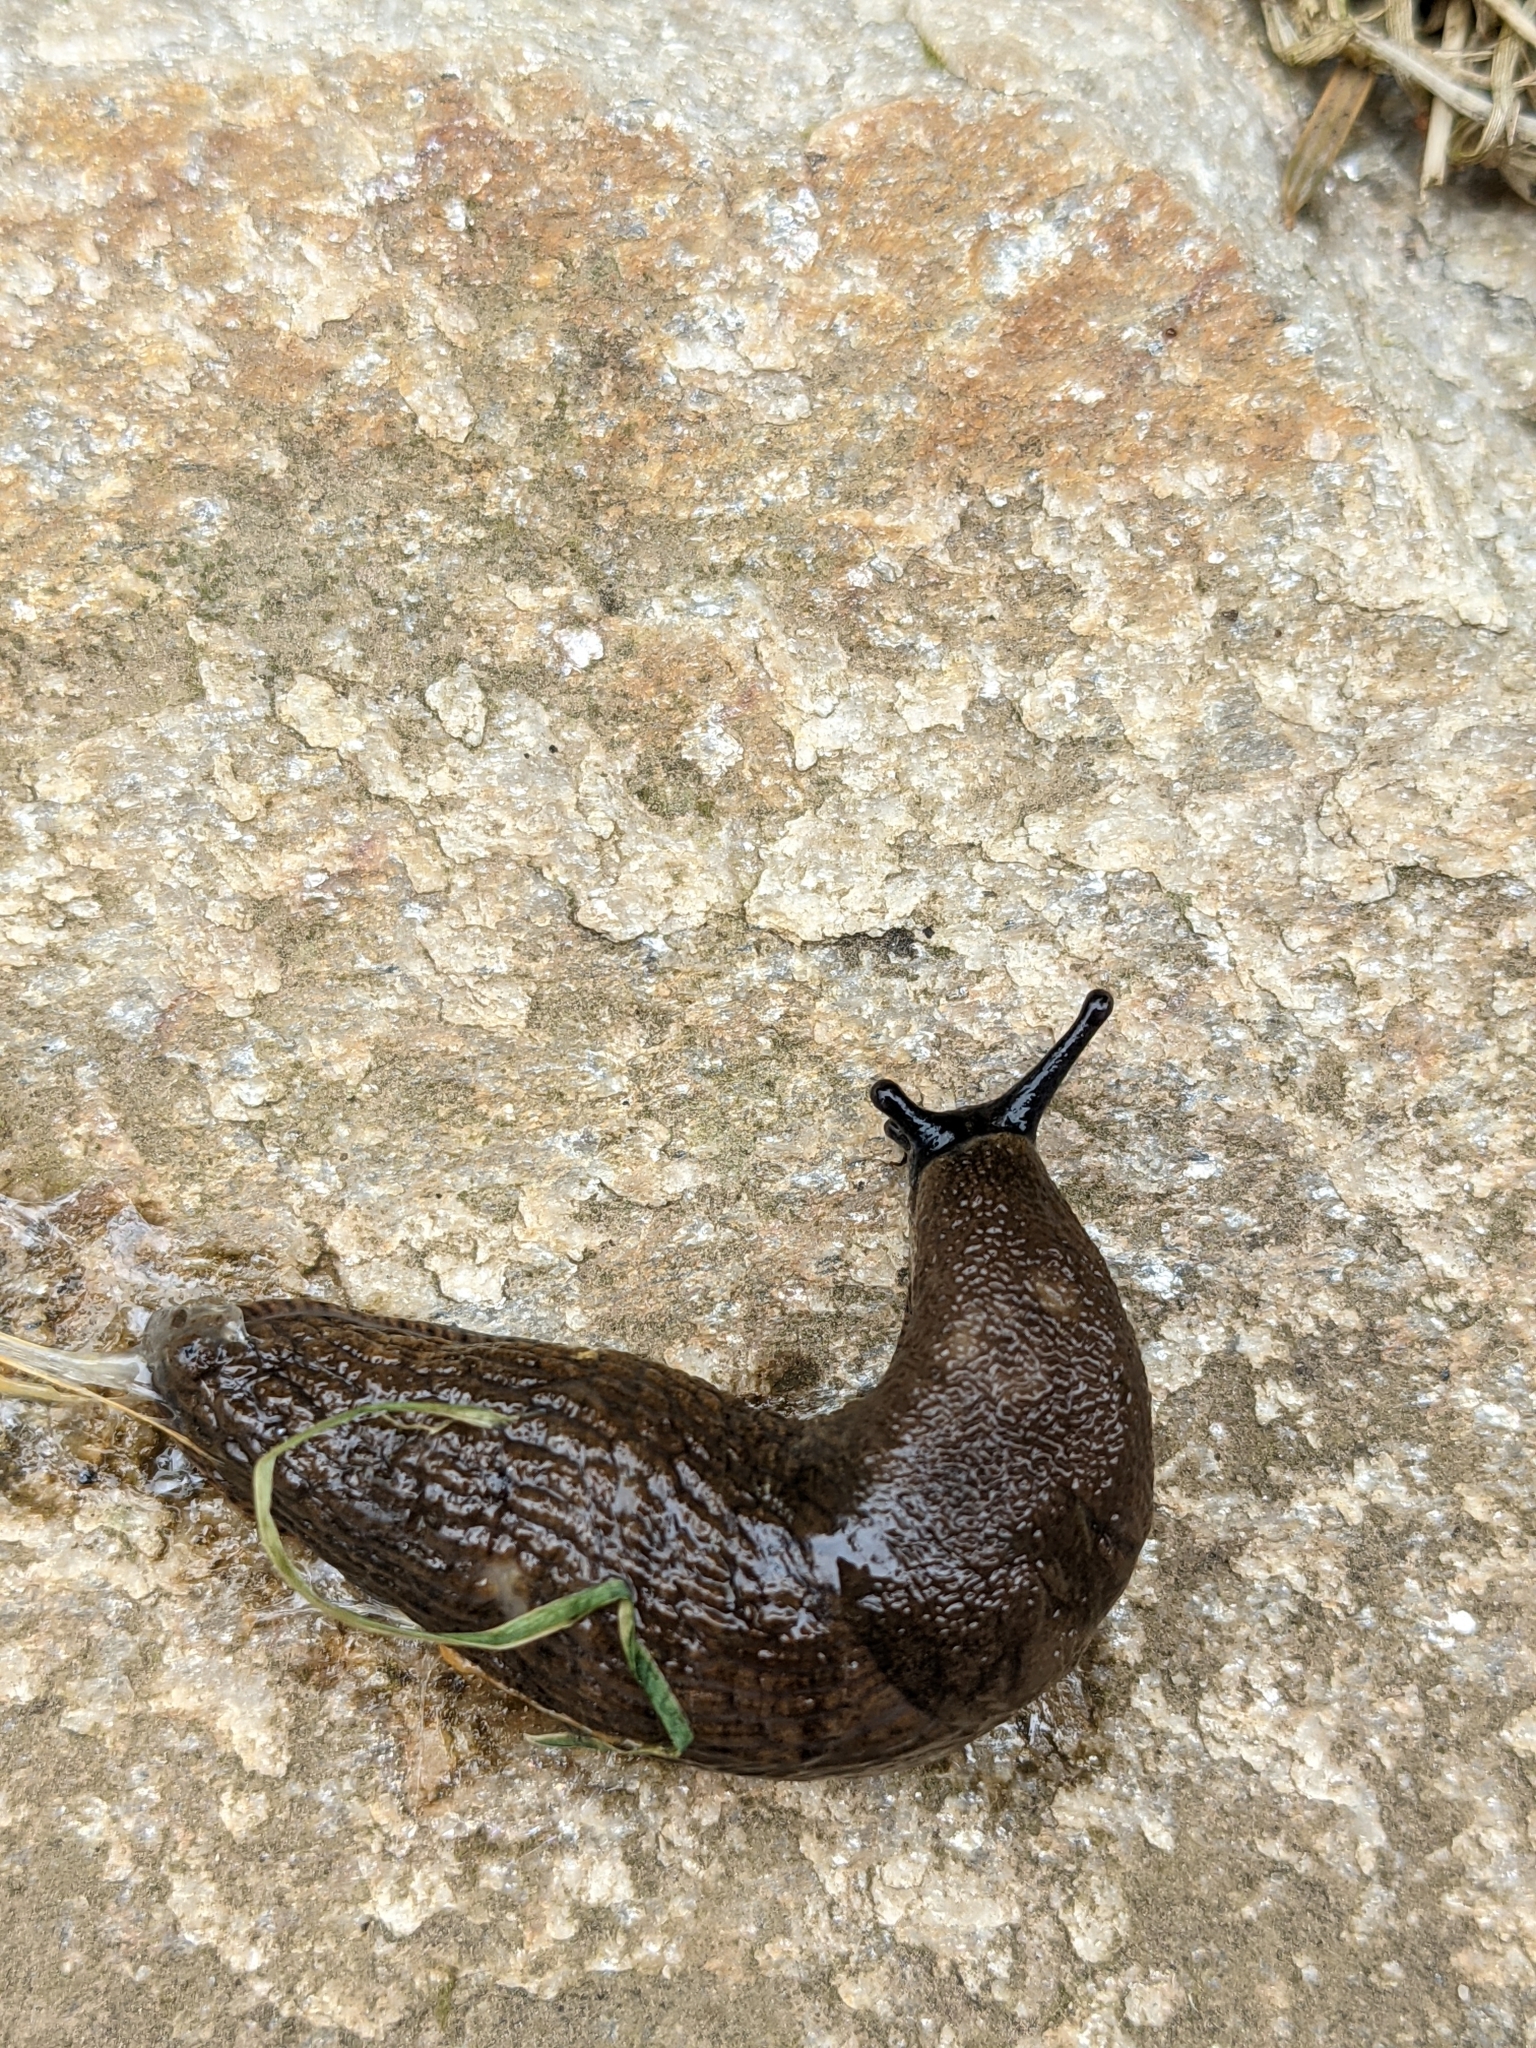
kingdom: Animalia
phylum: Mollusca
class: Gastropoda
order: Stylommatophora
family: Arionidae
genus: Arion
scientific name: Arion rufus
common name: Chocolate arion
